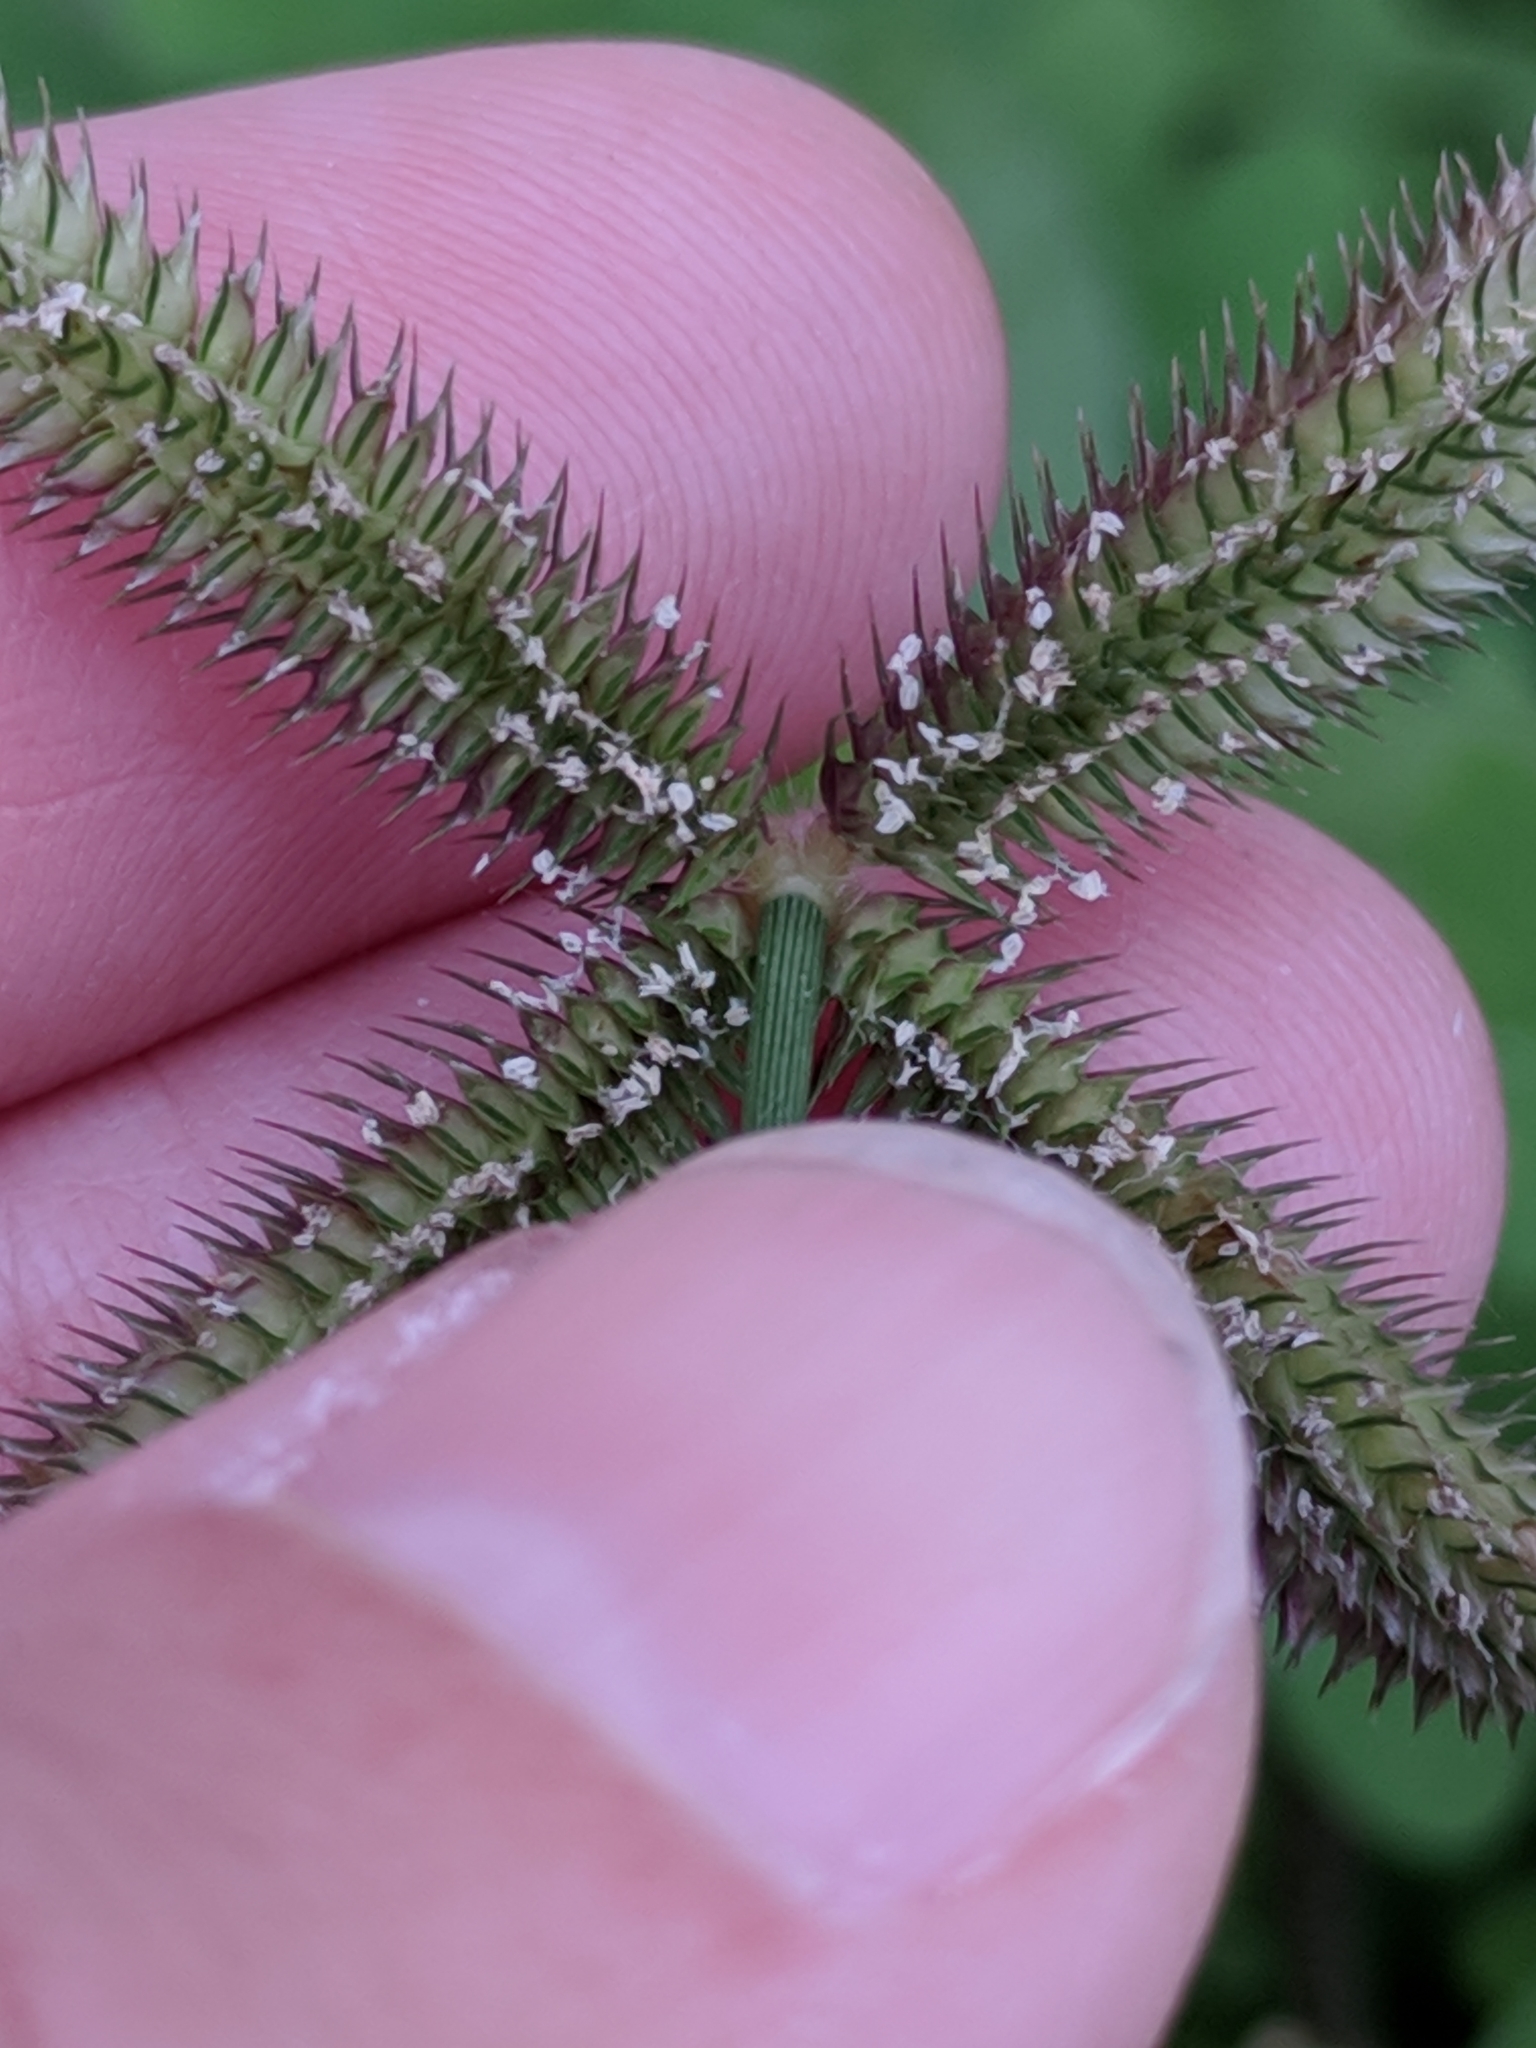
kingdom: Plantae
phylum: Tracheophyta
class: Liliopsida
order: Poales
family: Poaceae
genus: Dactyloctenium
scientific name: Dactyloctenium aegyptium
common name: Egyptian grass
